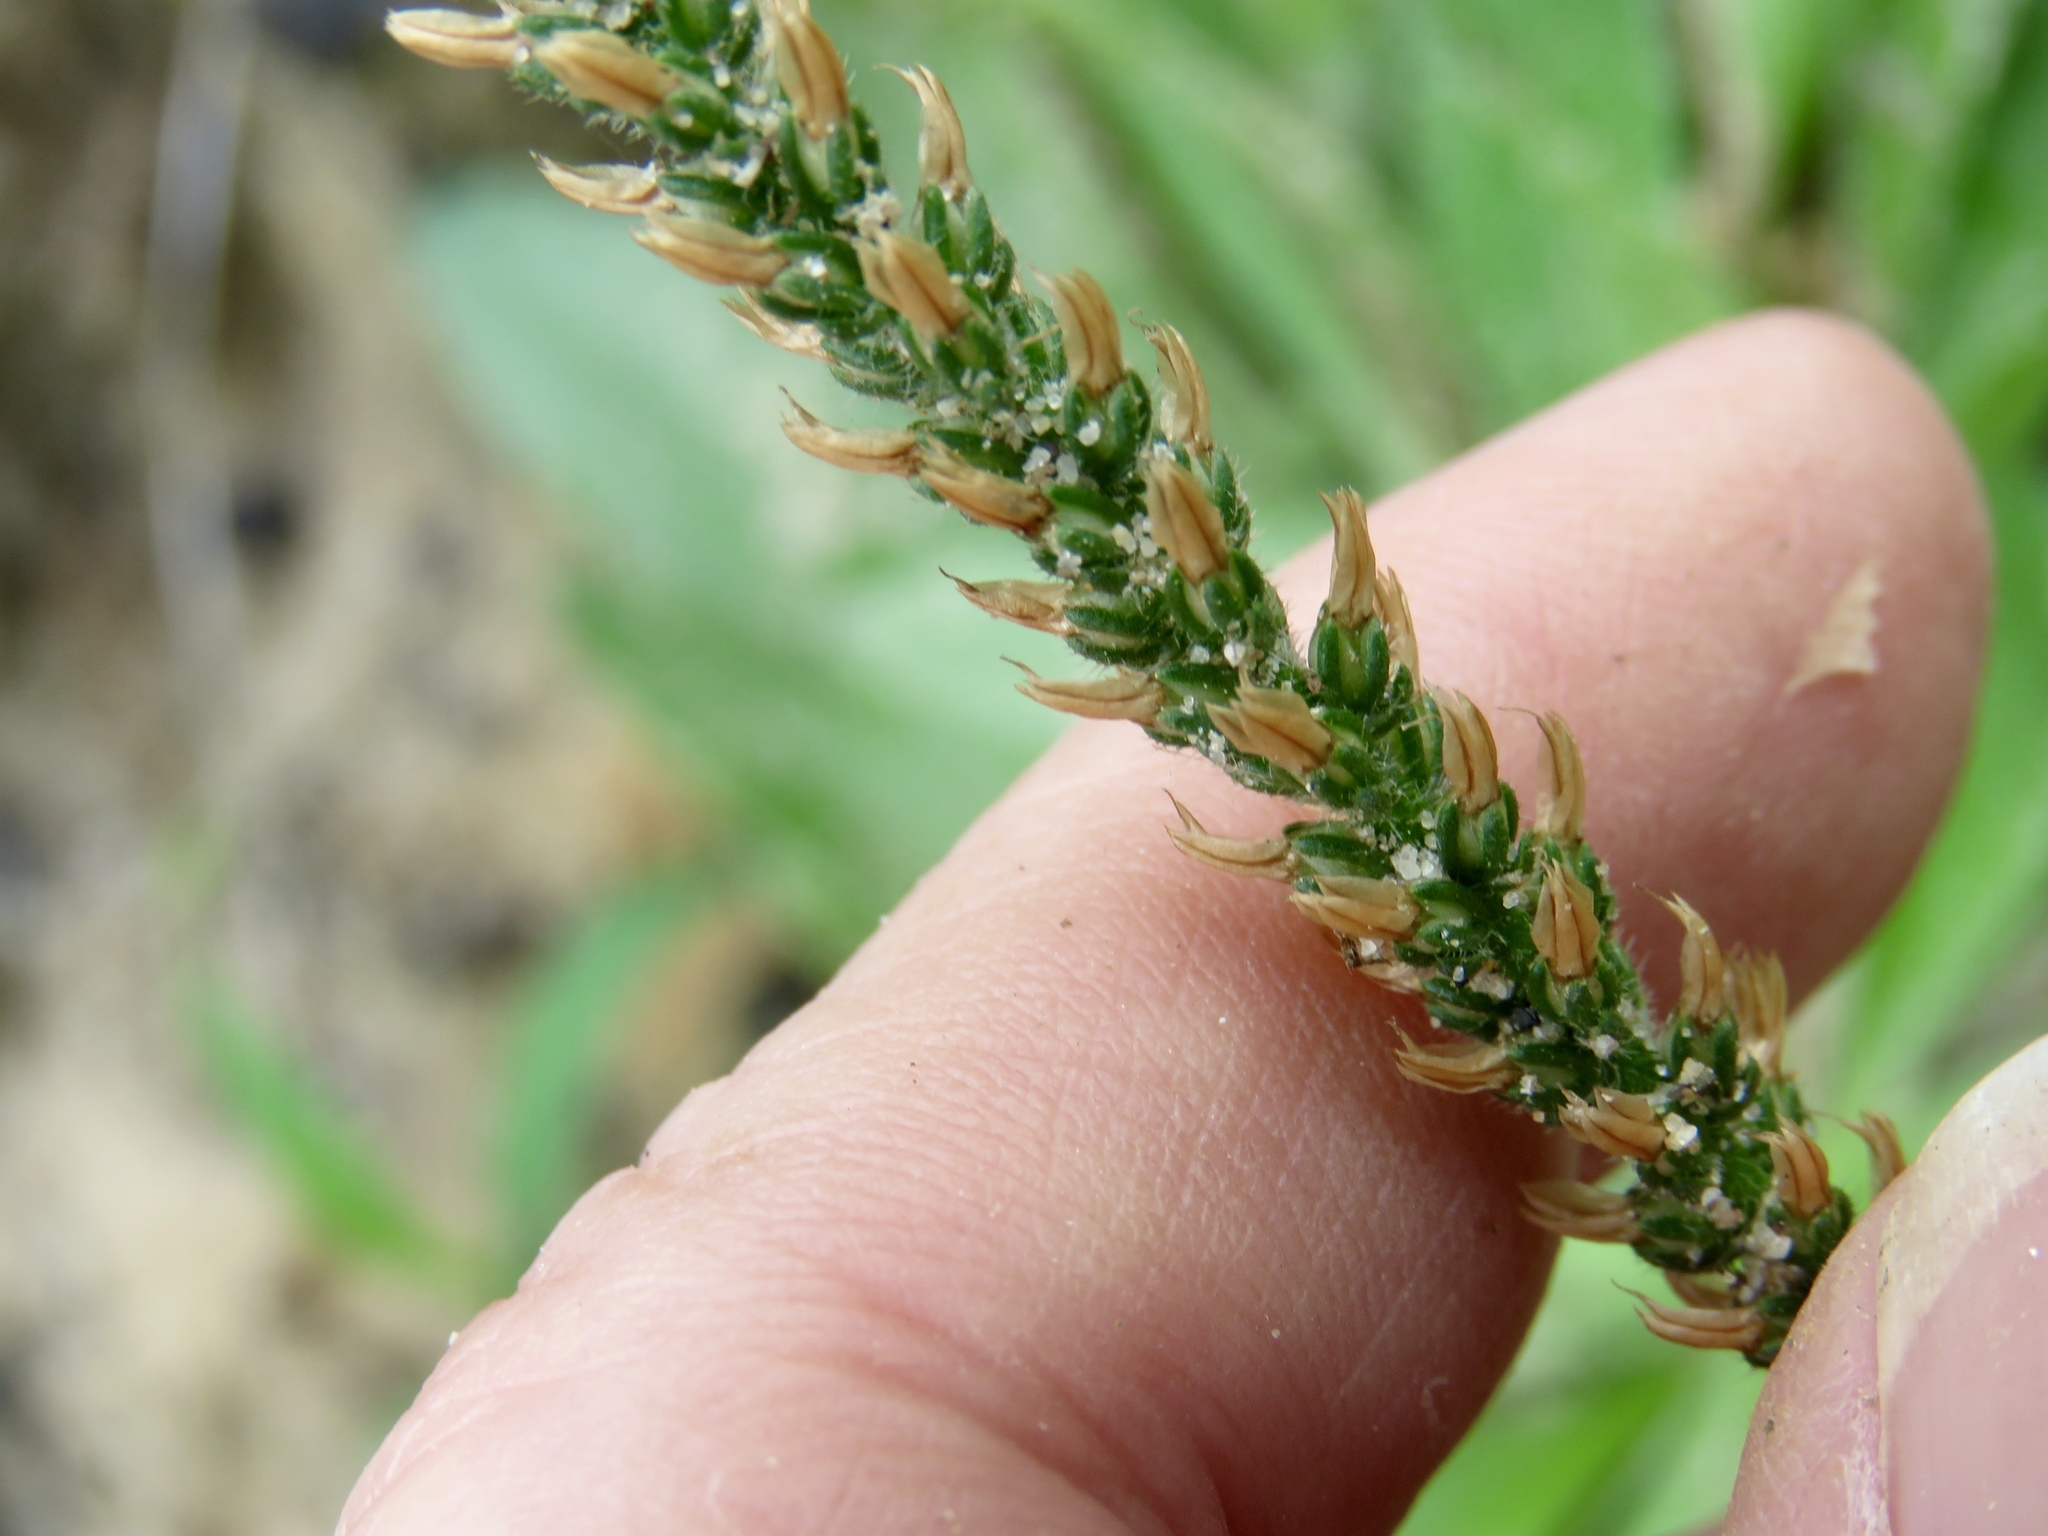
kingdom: Plantae
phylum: Tracheophyta
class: Magnoliopsida
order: Lamiales
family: Plantaginaceae
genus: Plantago
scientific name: Plantago virginica
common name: Hoary plantain
